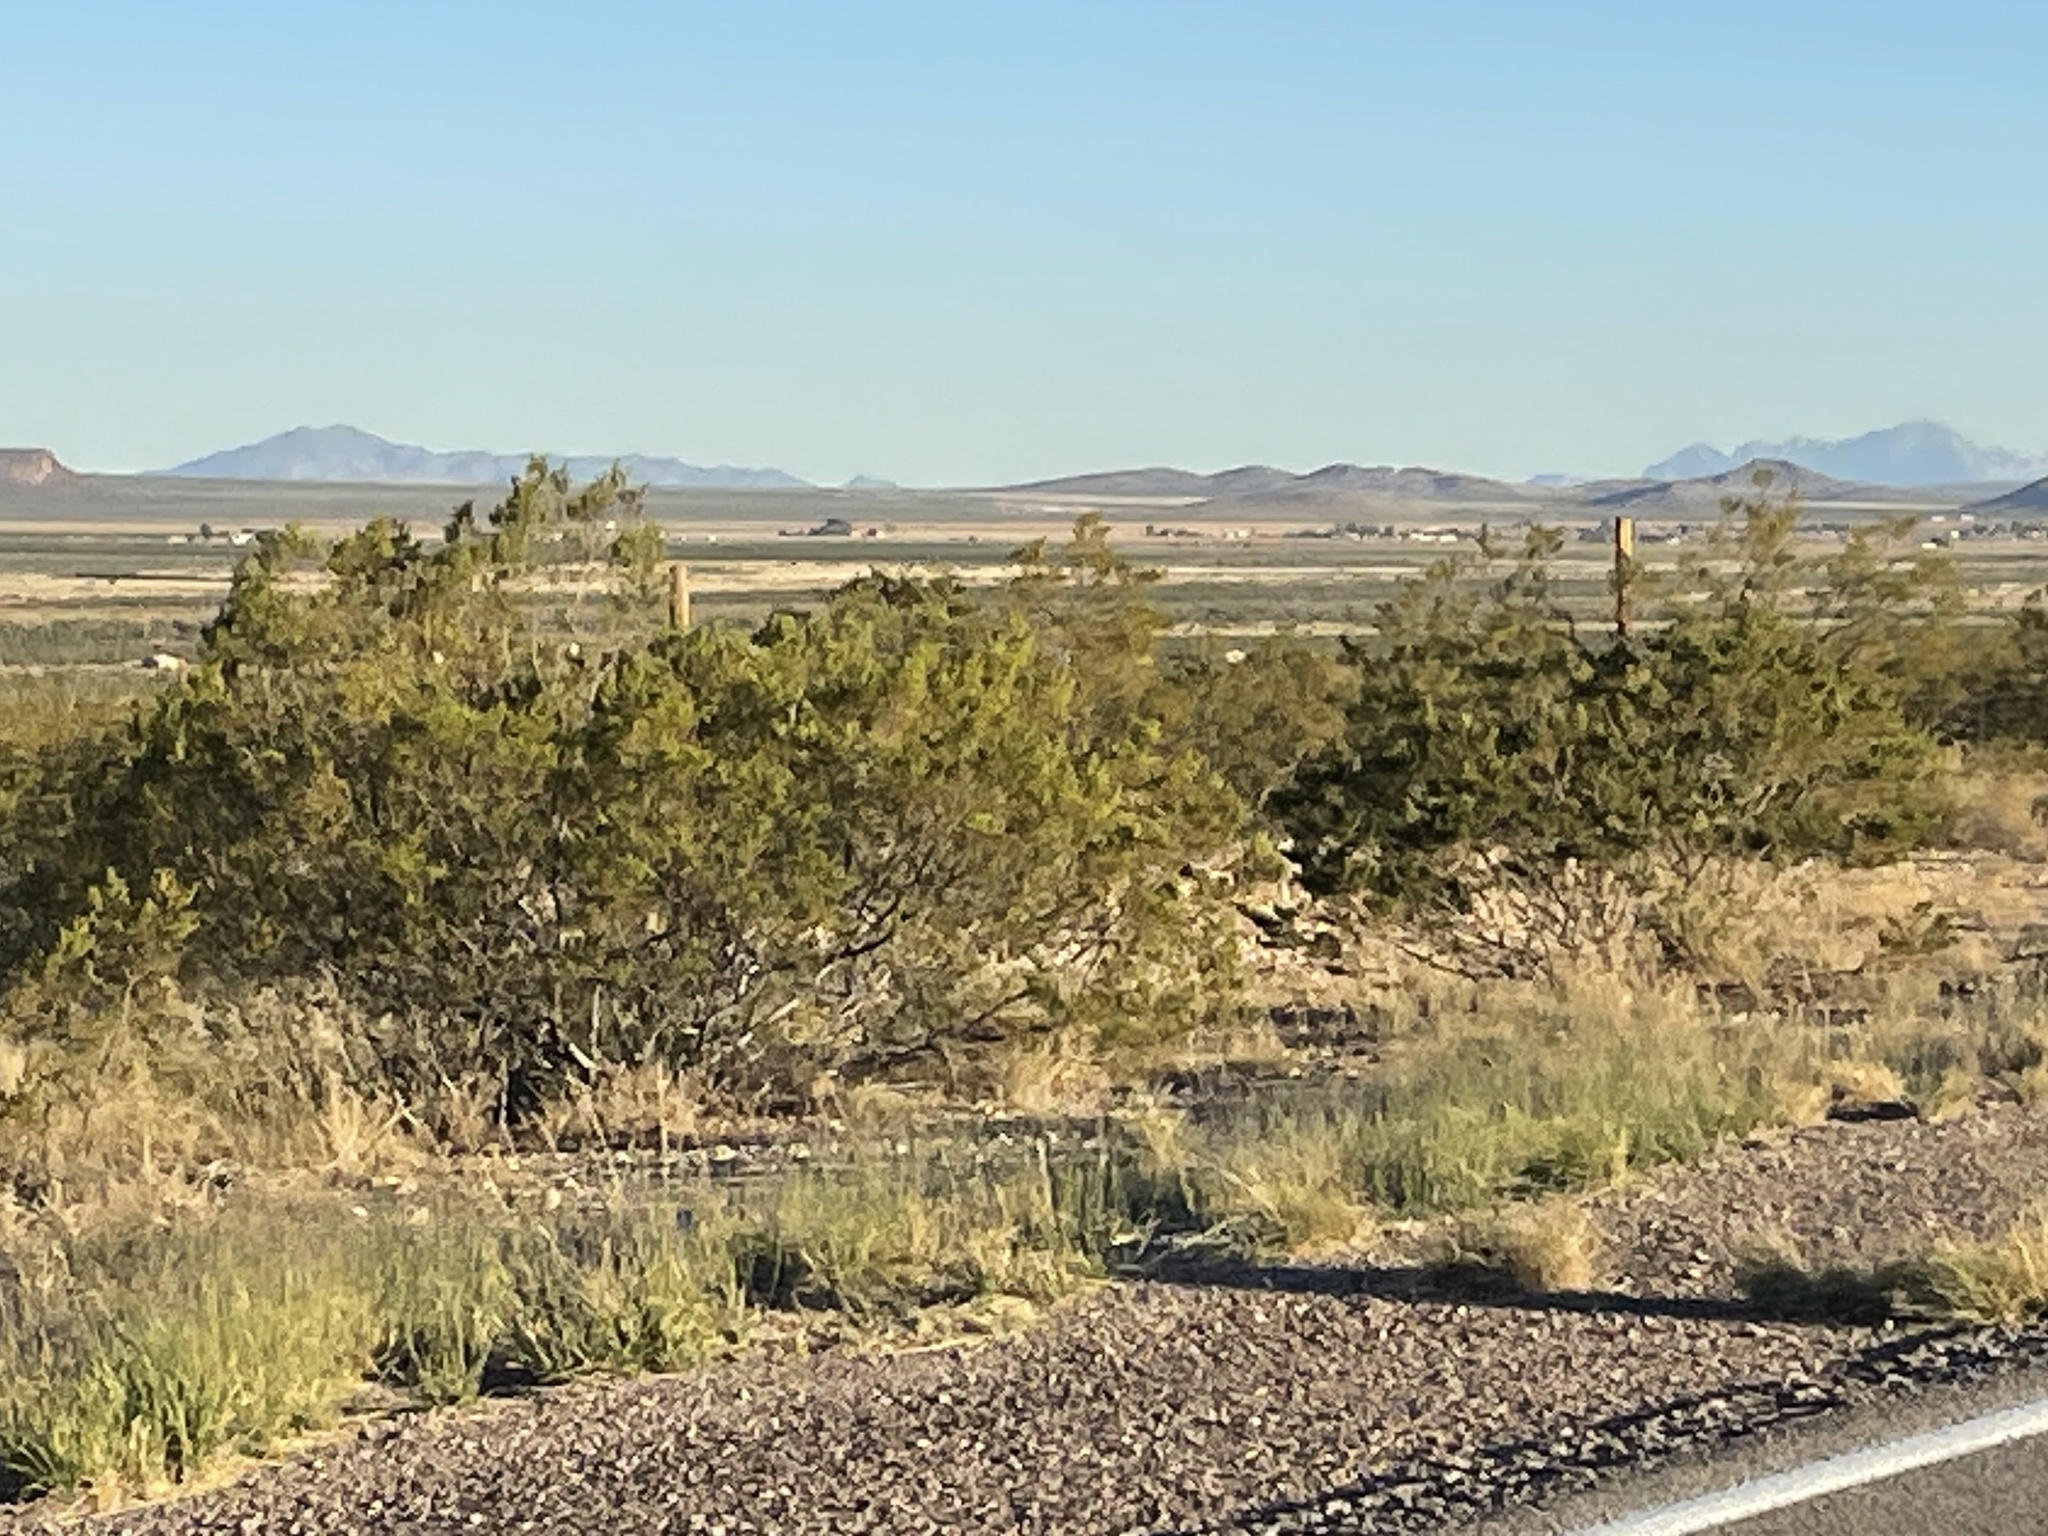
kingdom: Plantae
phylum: Tracheophyta
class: Magnoliopsida
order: Zygophyllales
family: Zygophyllaceae
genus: Larrea
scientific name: Larrea tridentata
